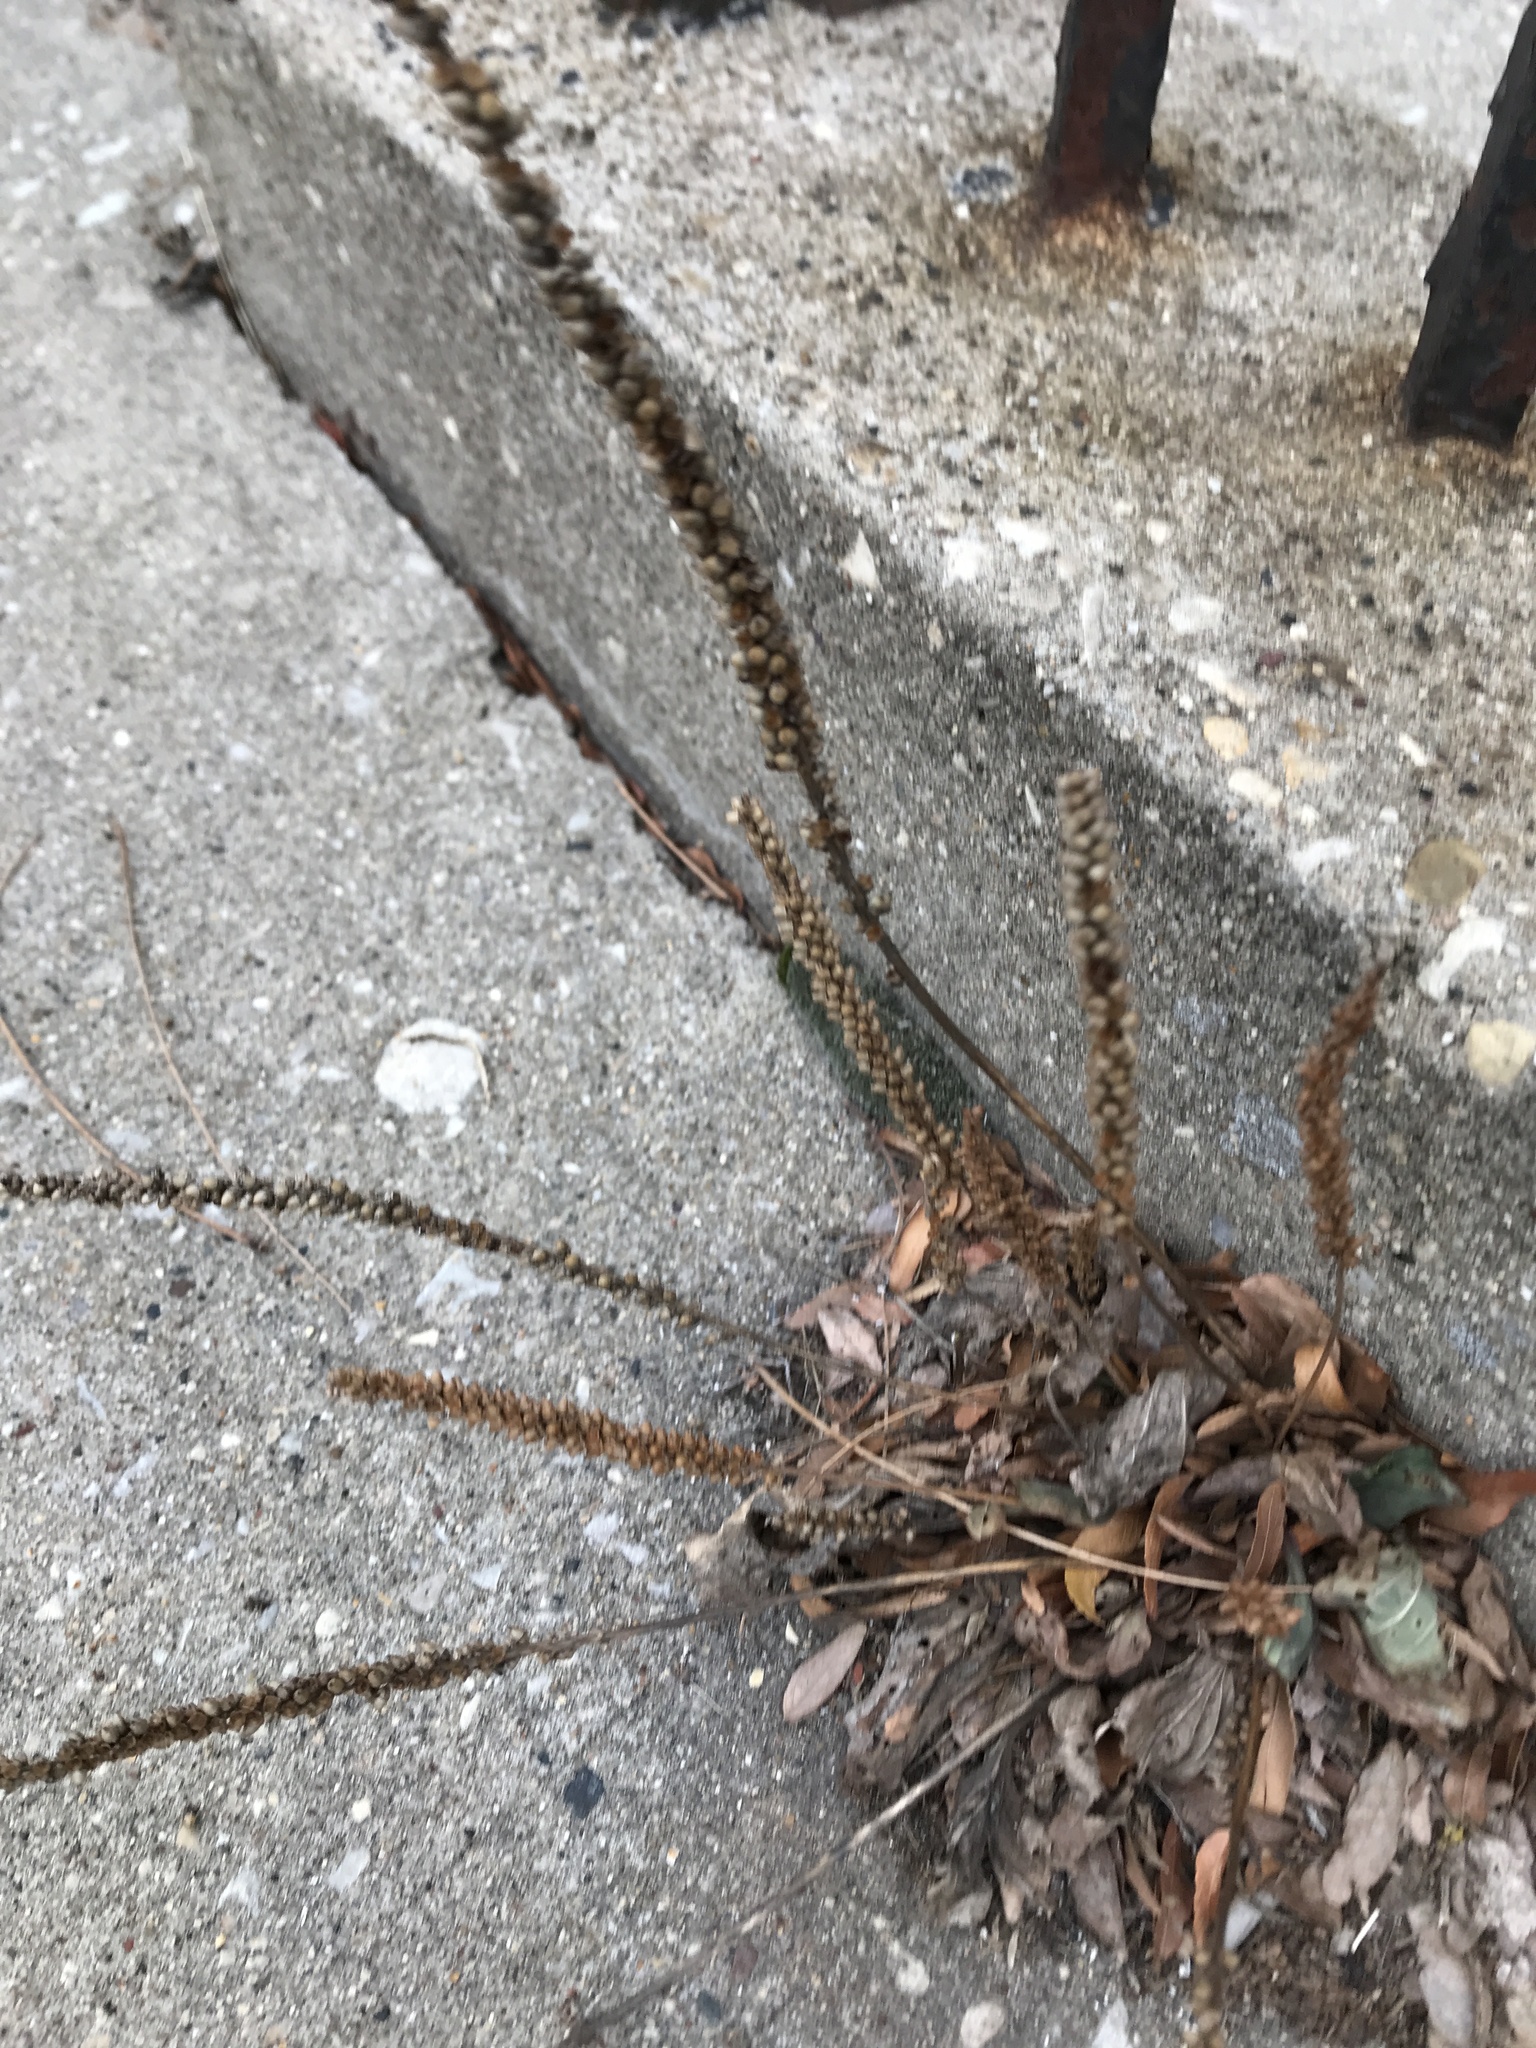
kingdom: Plantae
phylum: Tracheophyta
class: Magnoliopsida
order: Lamiales
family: Plantaginaceae
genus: Plantago
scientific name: Plantago major
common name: Common plantain
